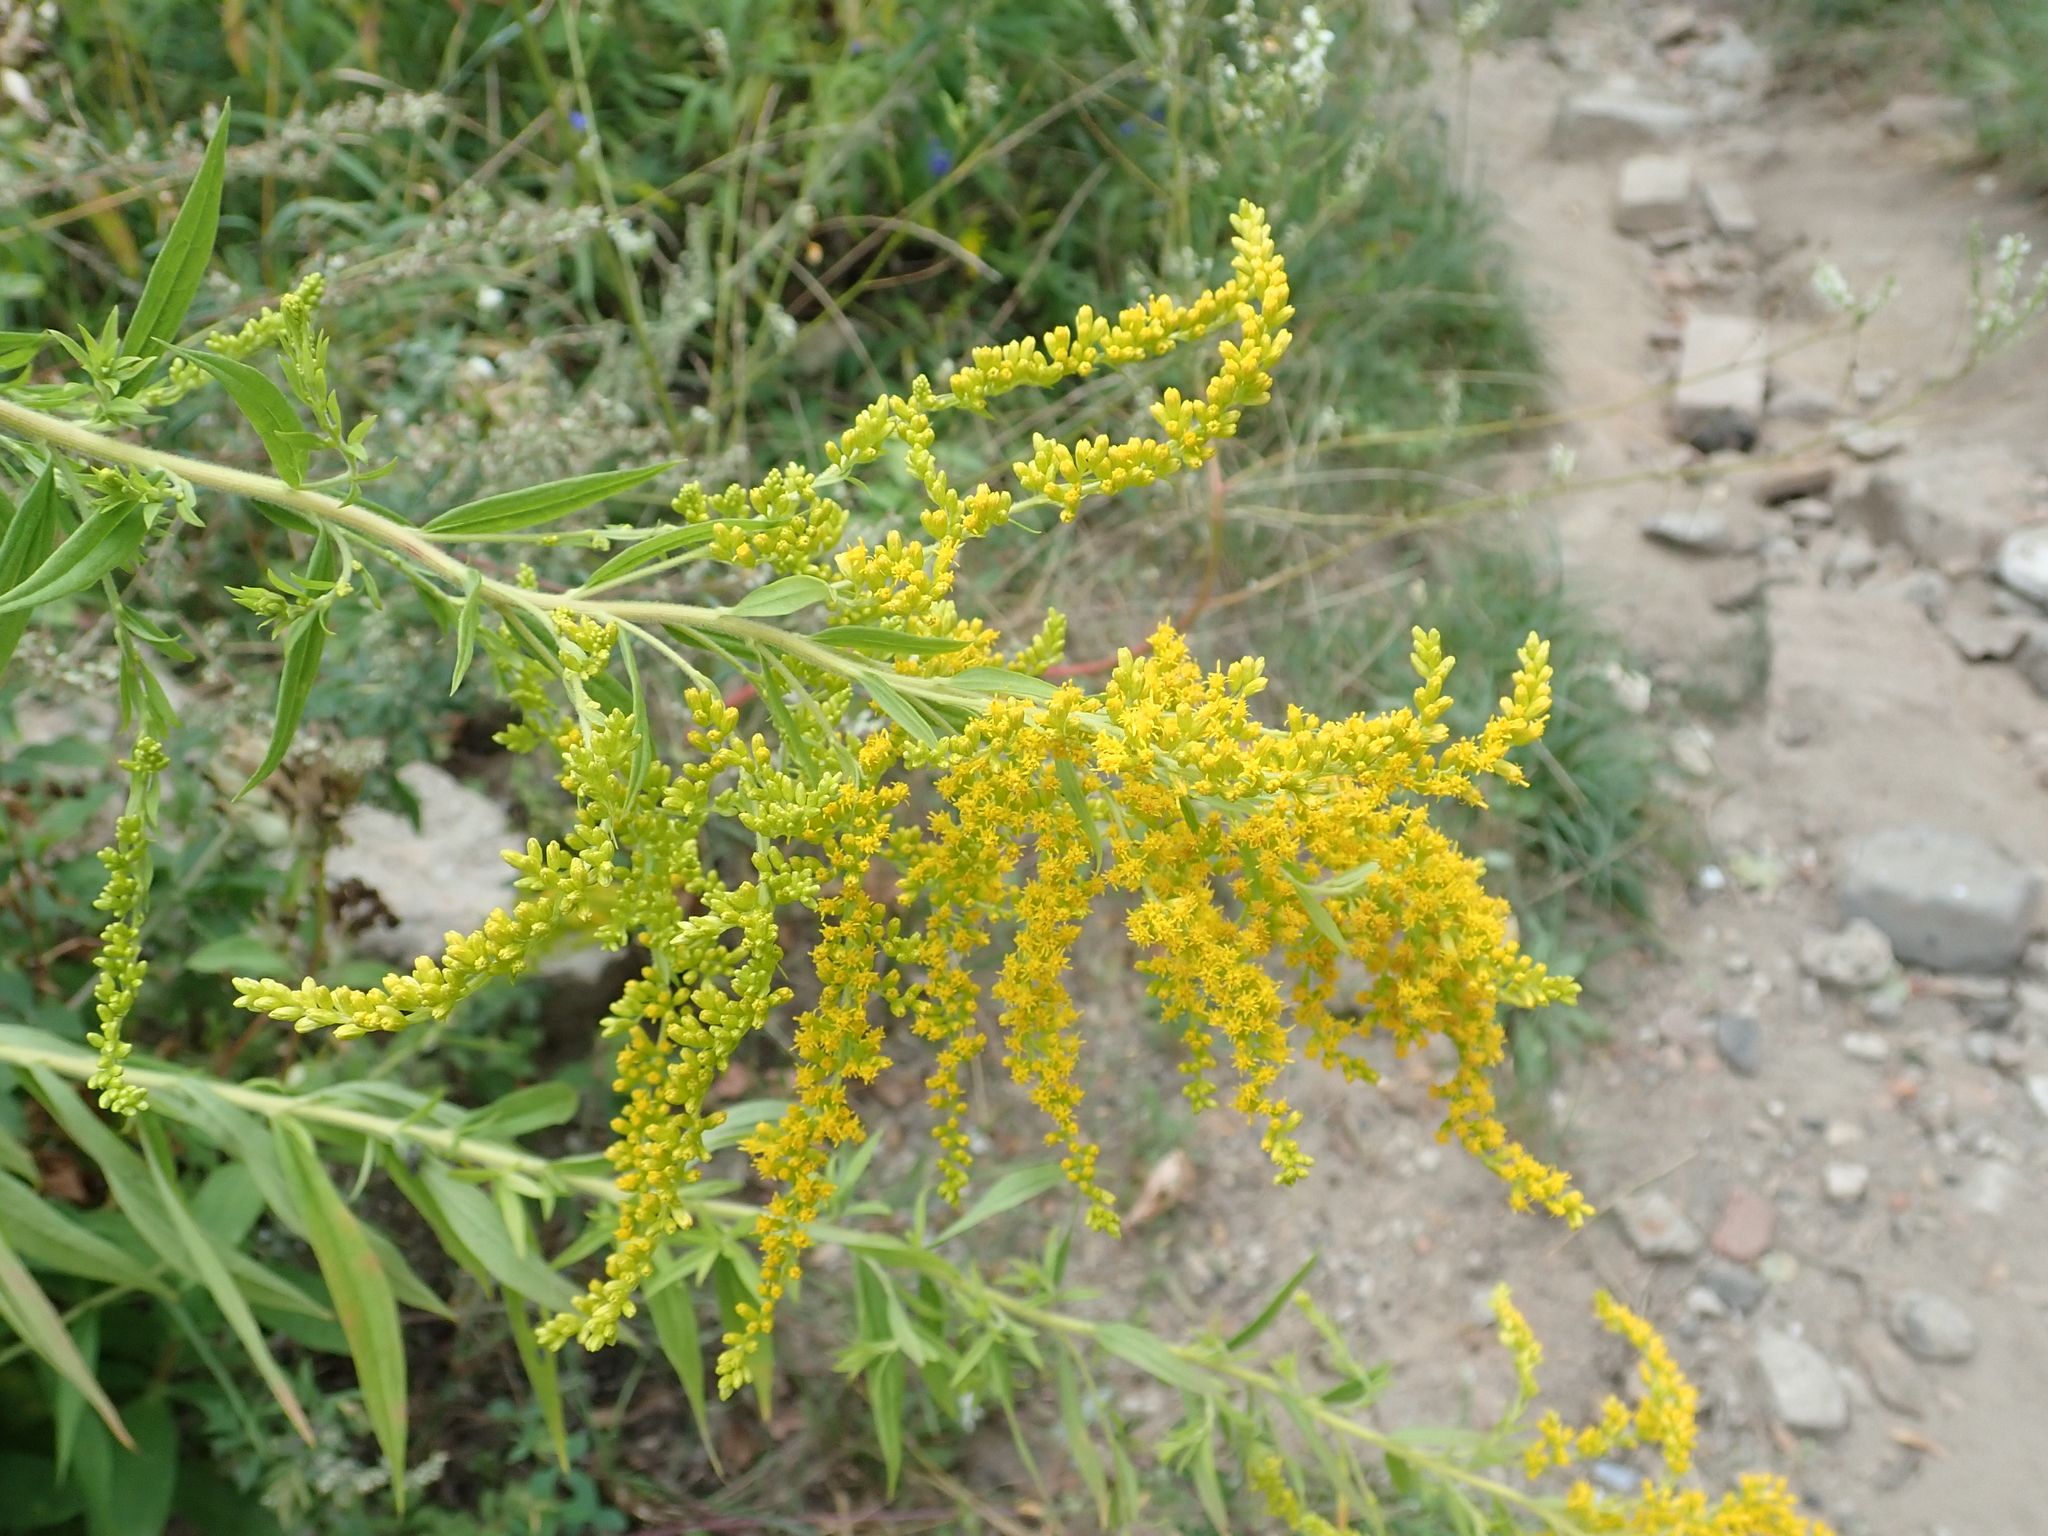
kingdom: Plantae
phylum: Tracheophyta
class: Magnoliopsida
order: Asterales
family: Asteraceae
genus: Solidago
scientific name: Solidago canadensis
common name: Canada goldenrod
